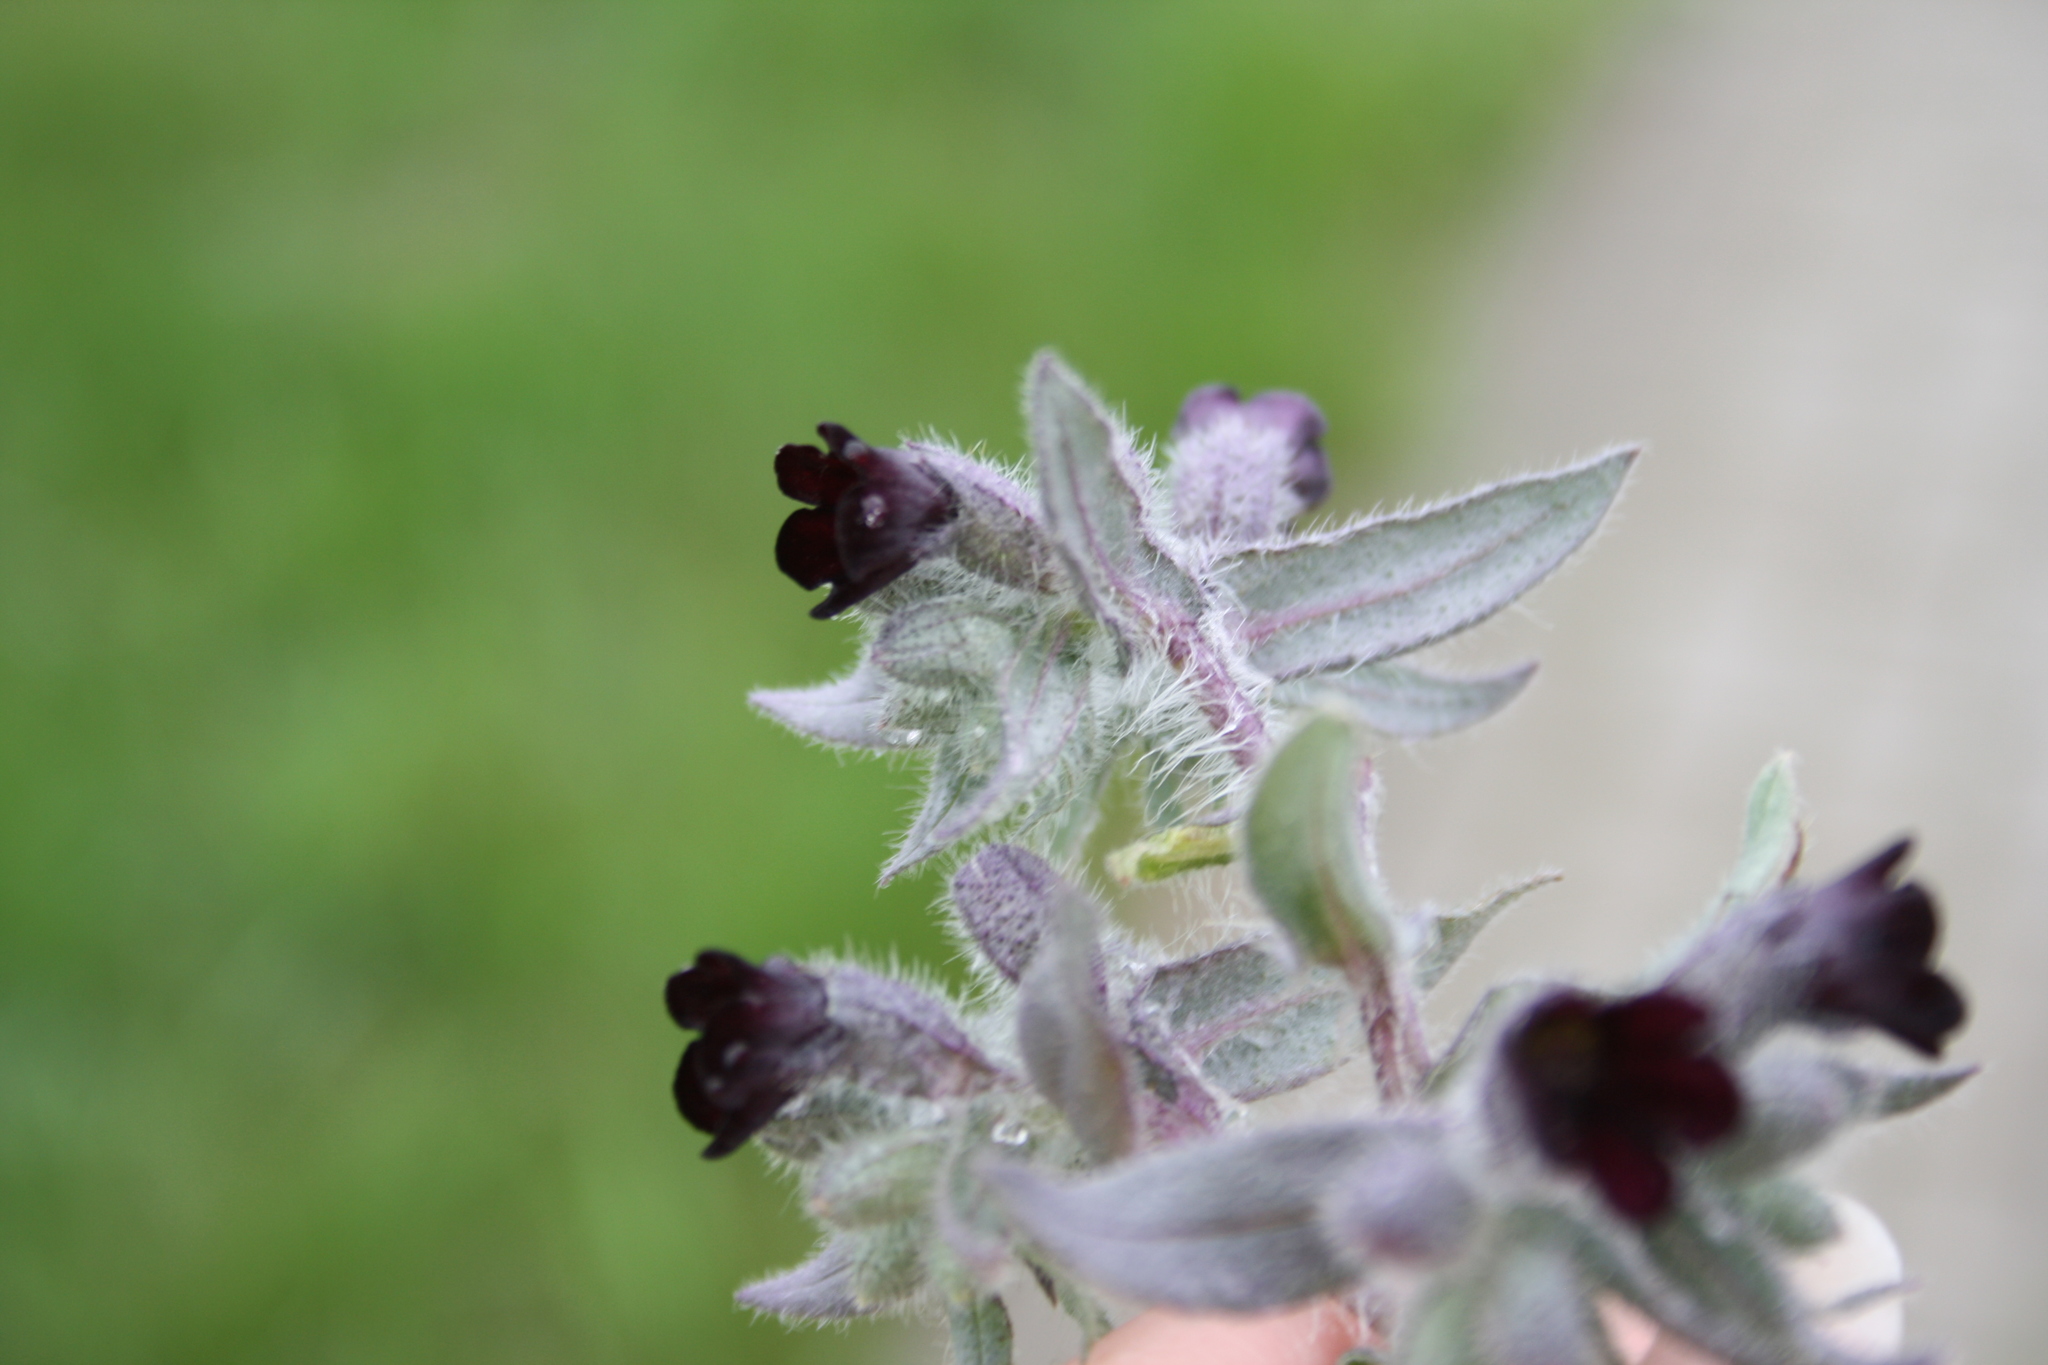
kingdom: Plantae
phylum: Tracheophyta
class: Magnoliopsida
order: Boraginales
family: Boraginaceae
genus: Nonea
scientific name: Nonea pulla
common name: Brown nonea
